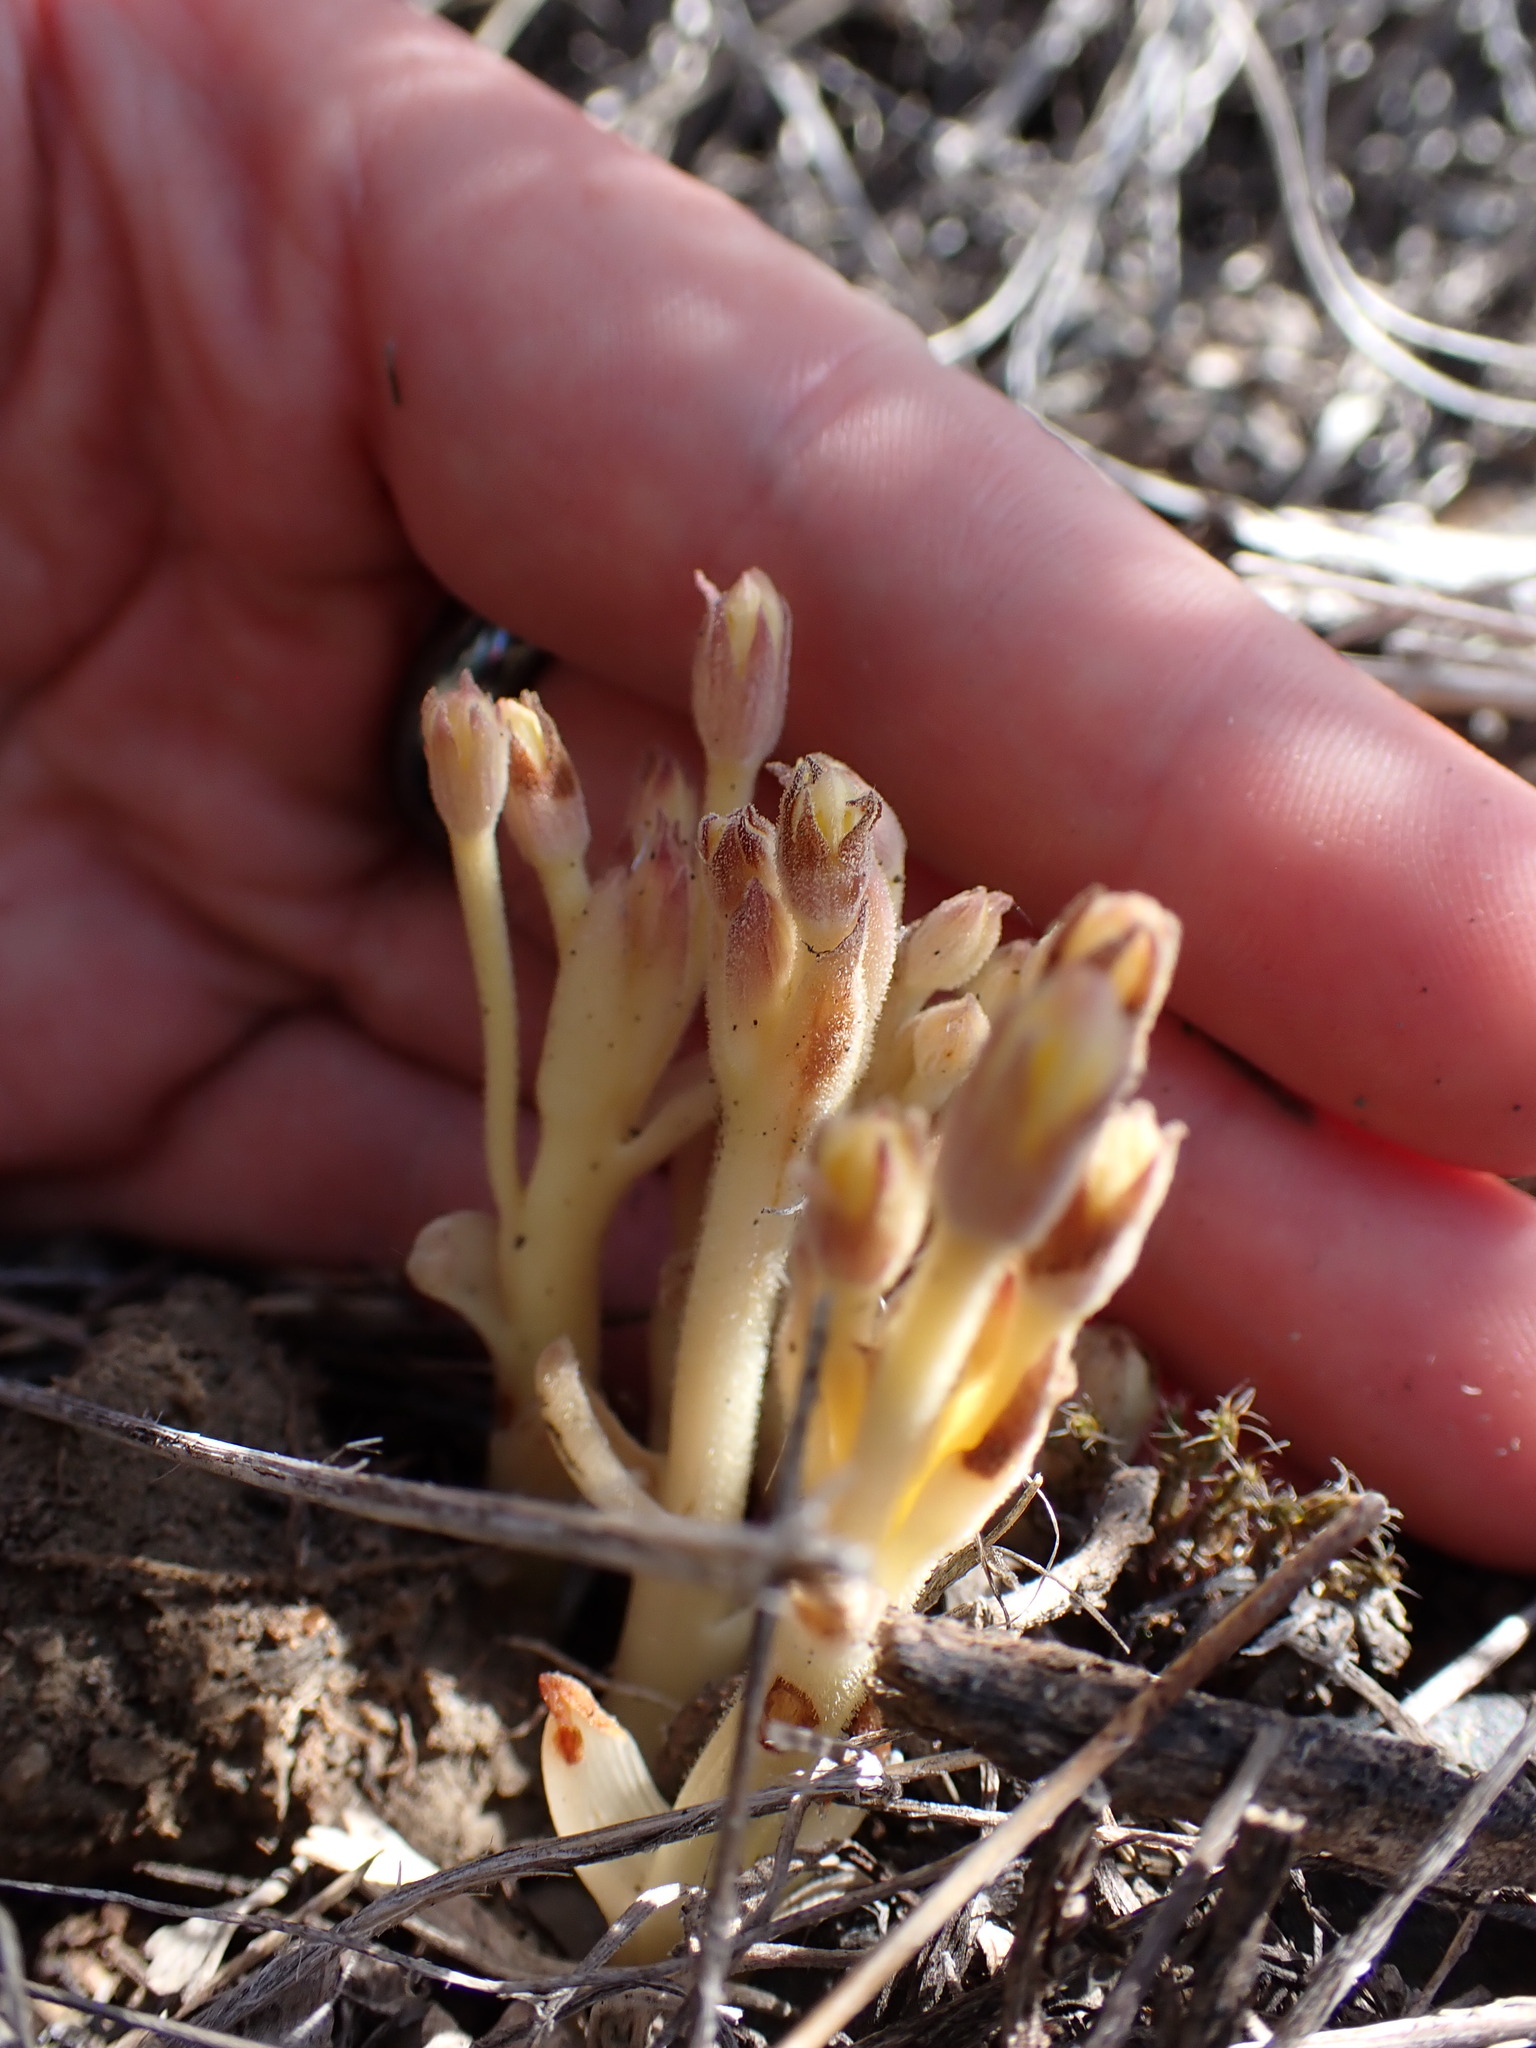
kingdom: Plantae
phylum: Tracheophyta
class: Magnoliopsida
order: Lamiales
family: Orobanchaceae
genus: Aphyllon
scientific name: Aphyllon fasciculatum
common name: Clustered broomrape
